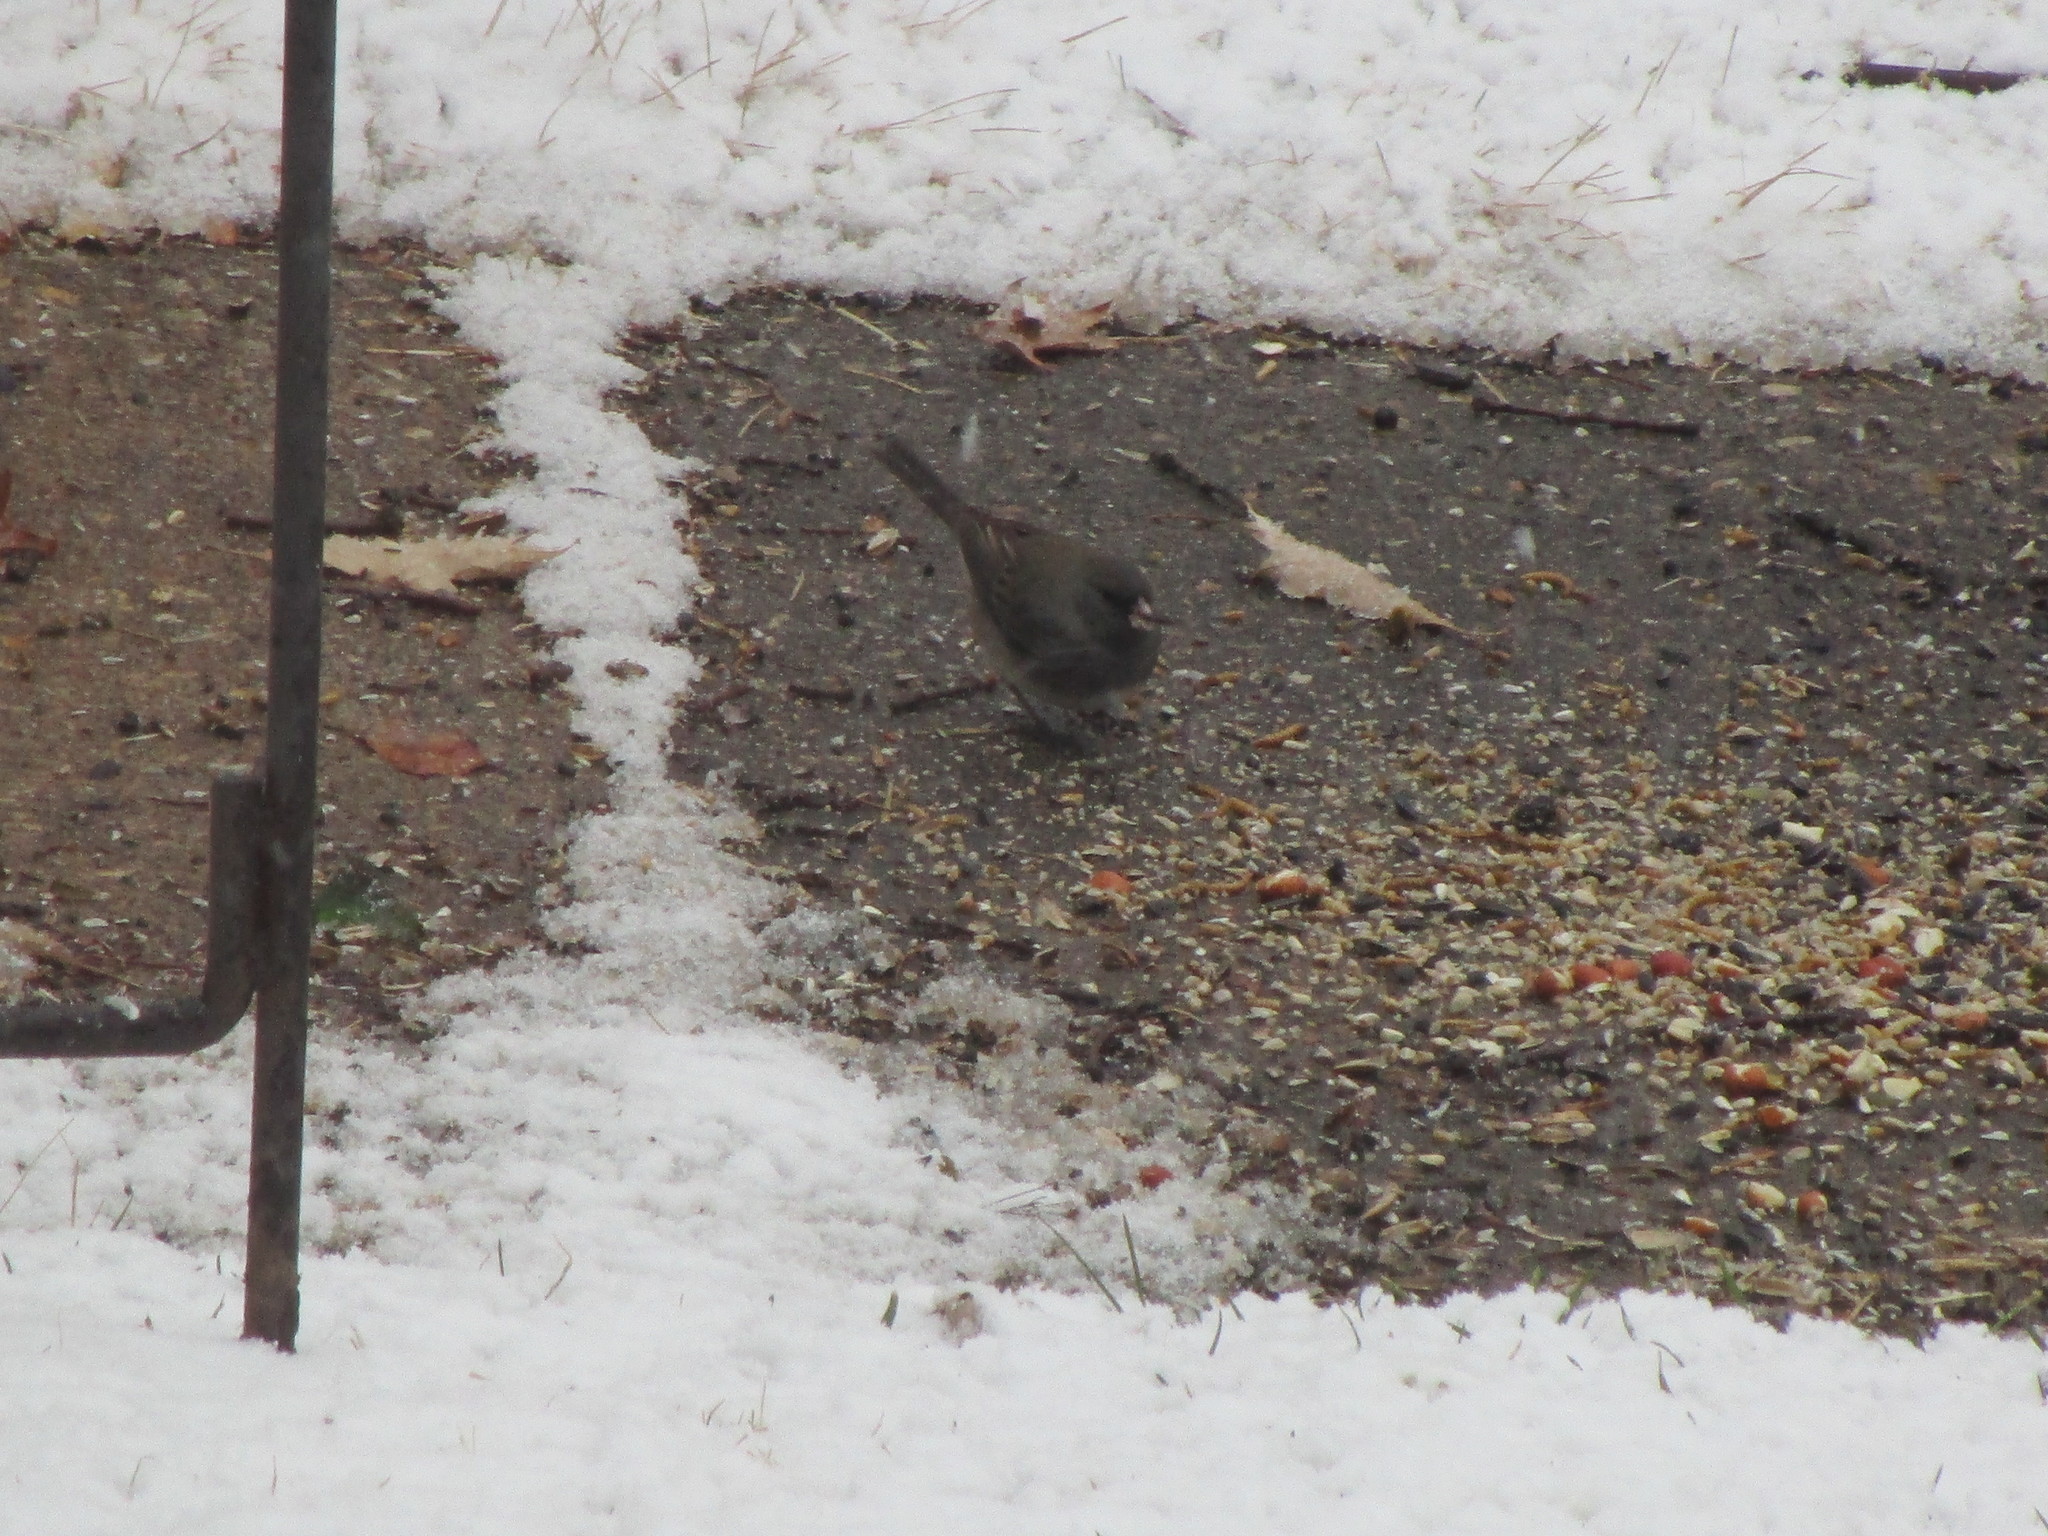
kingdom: Animalia
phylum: Chordata
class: Aves
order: Passeriformes
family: Passerellidae
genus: Junco
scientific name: Junco hyemalis
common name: Dark-eyed junco
